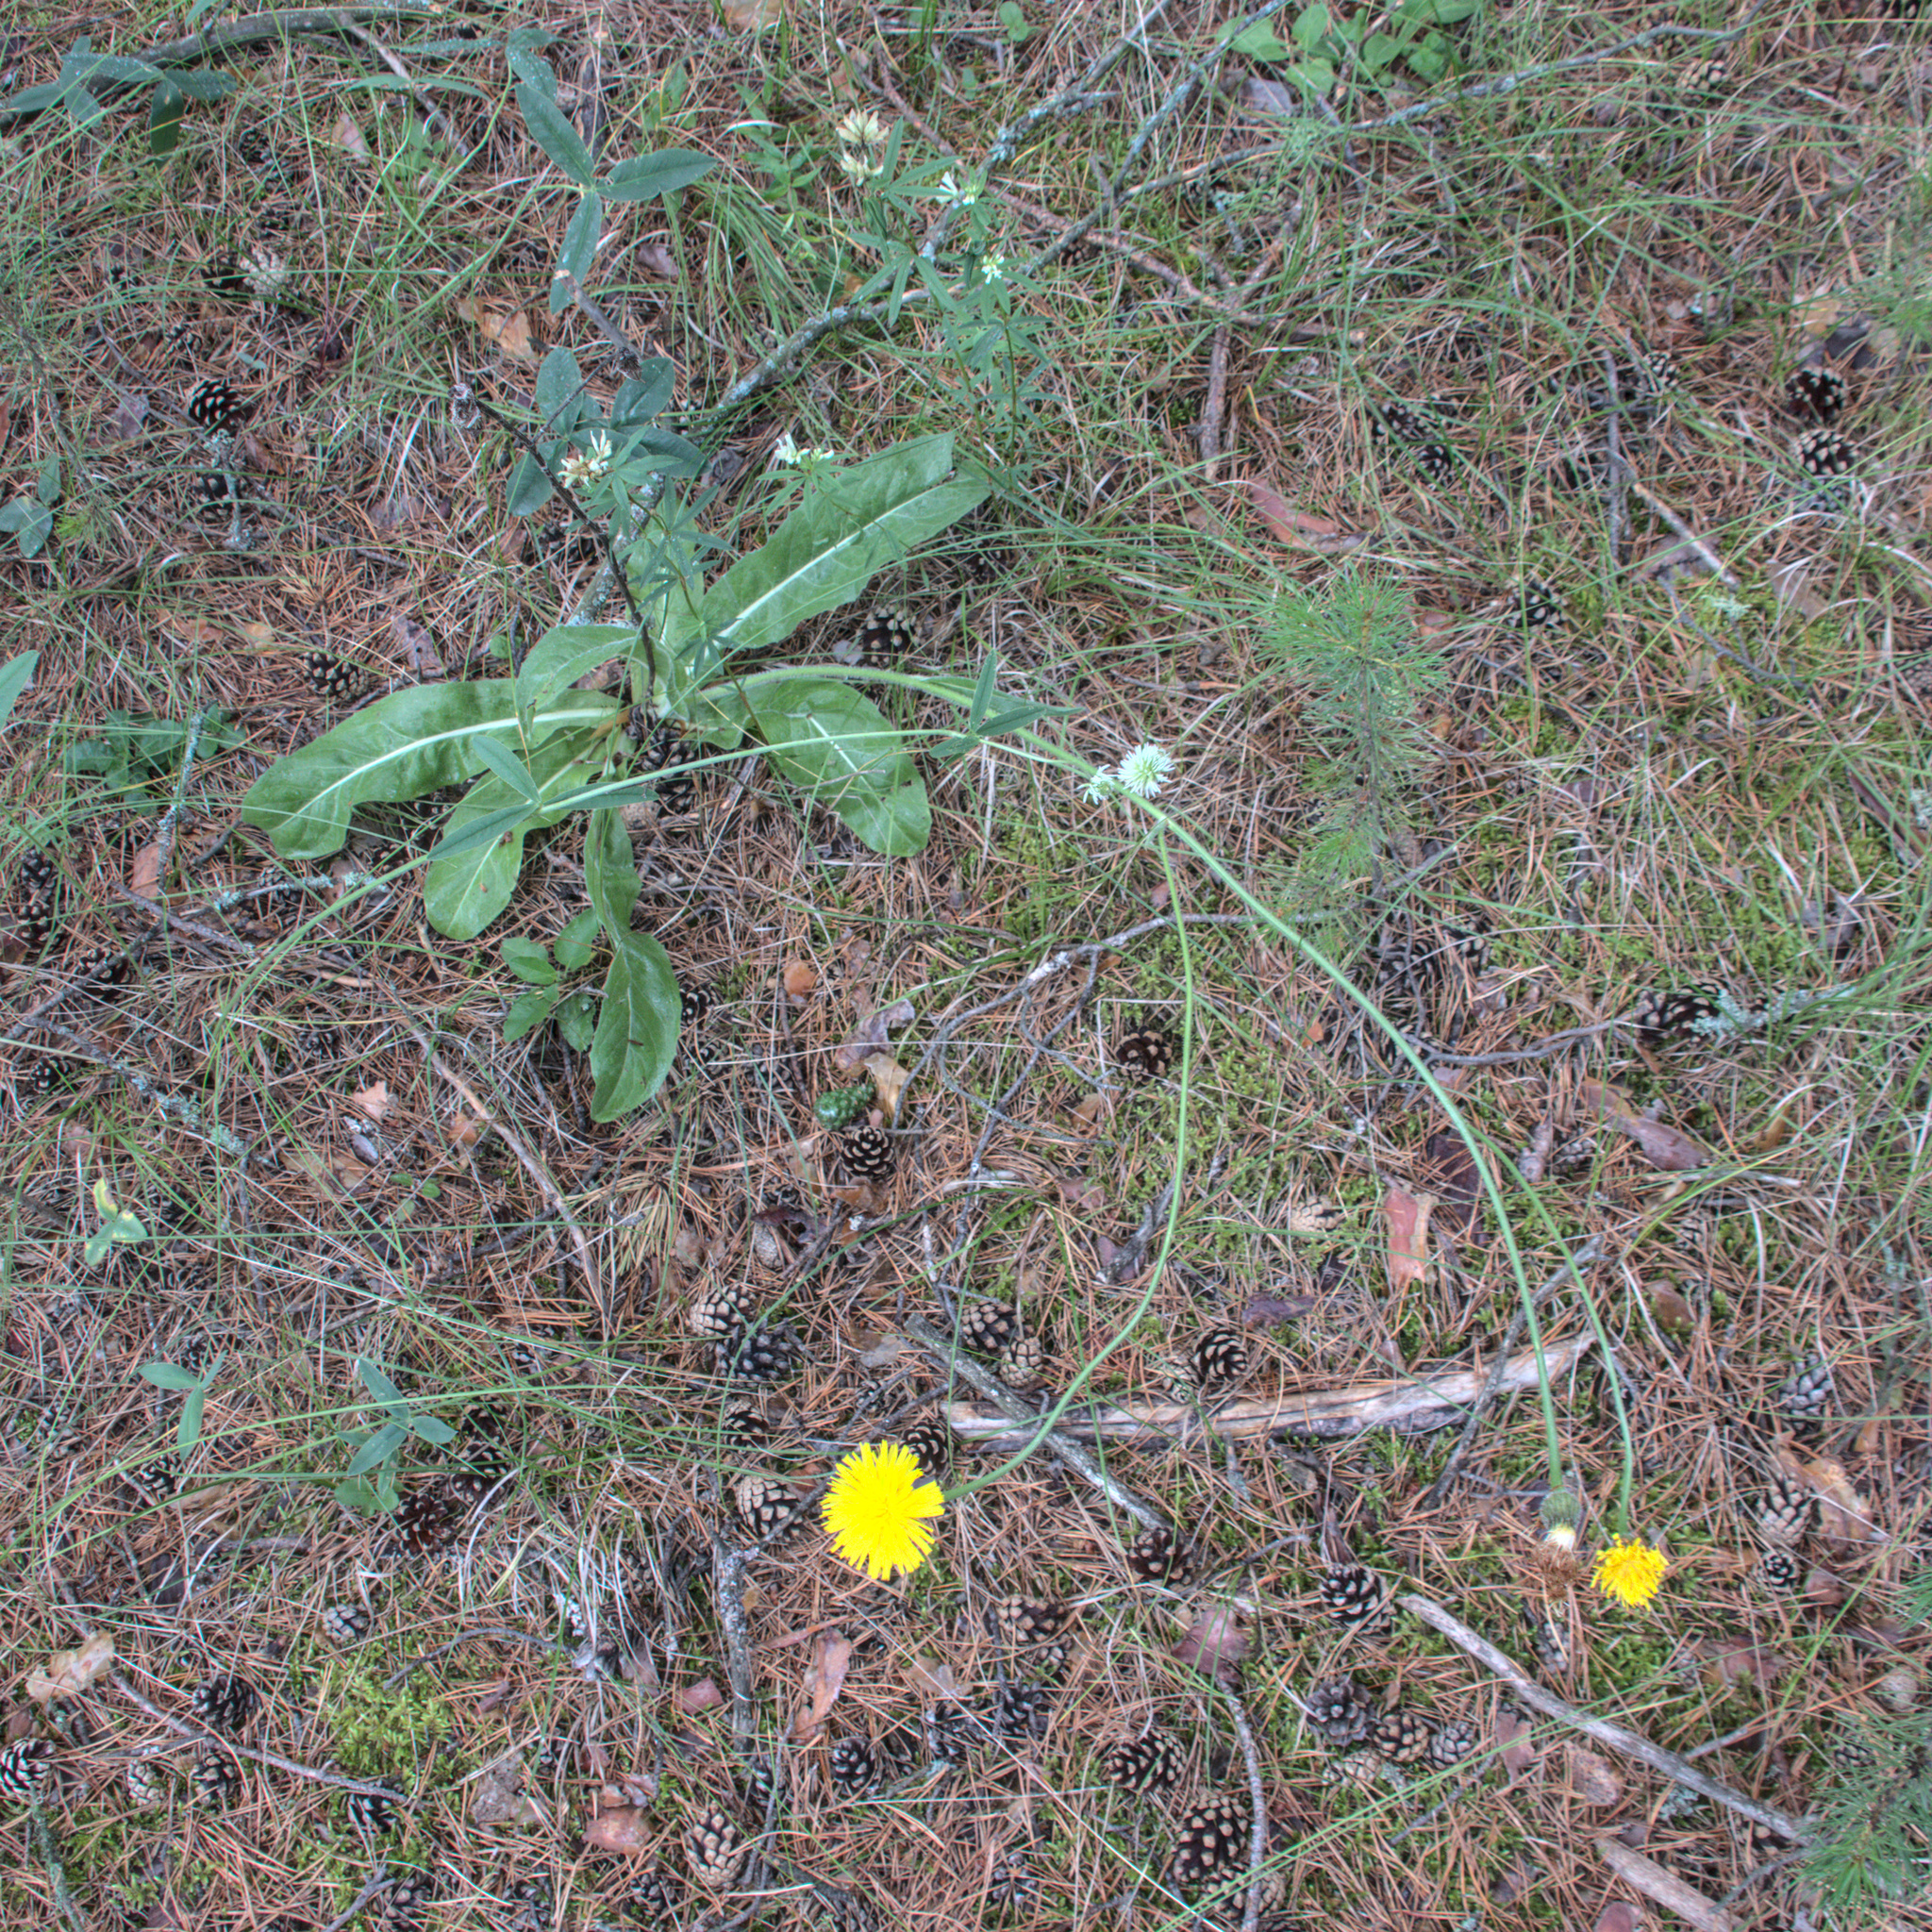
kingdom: Plantae
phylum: Tracheophyta
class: Magnoliopsida
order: Asterales
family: Asteraceae
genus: Pilosella
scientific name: Pilosella officinarum
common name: Mouse-ear hawkweed
